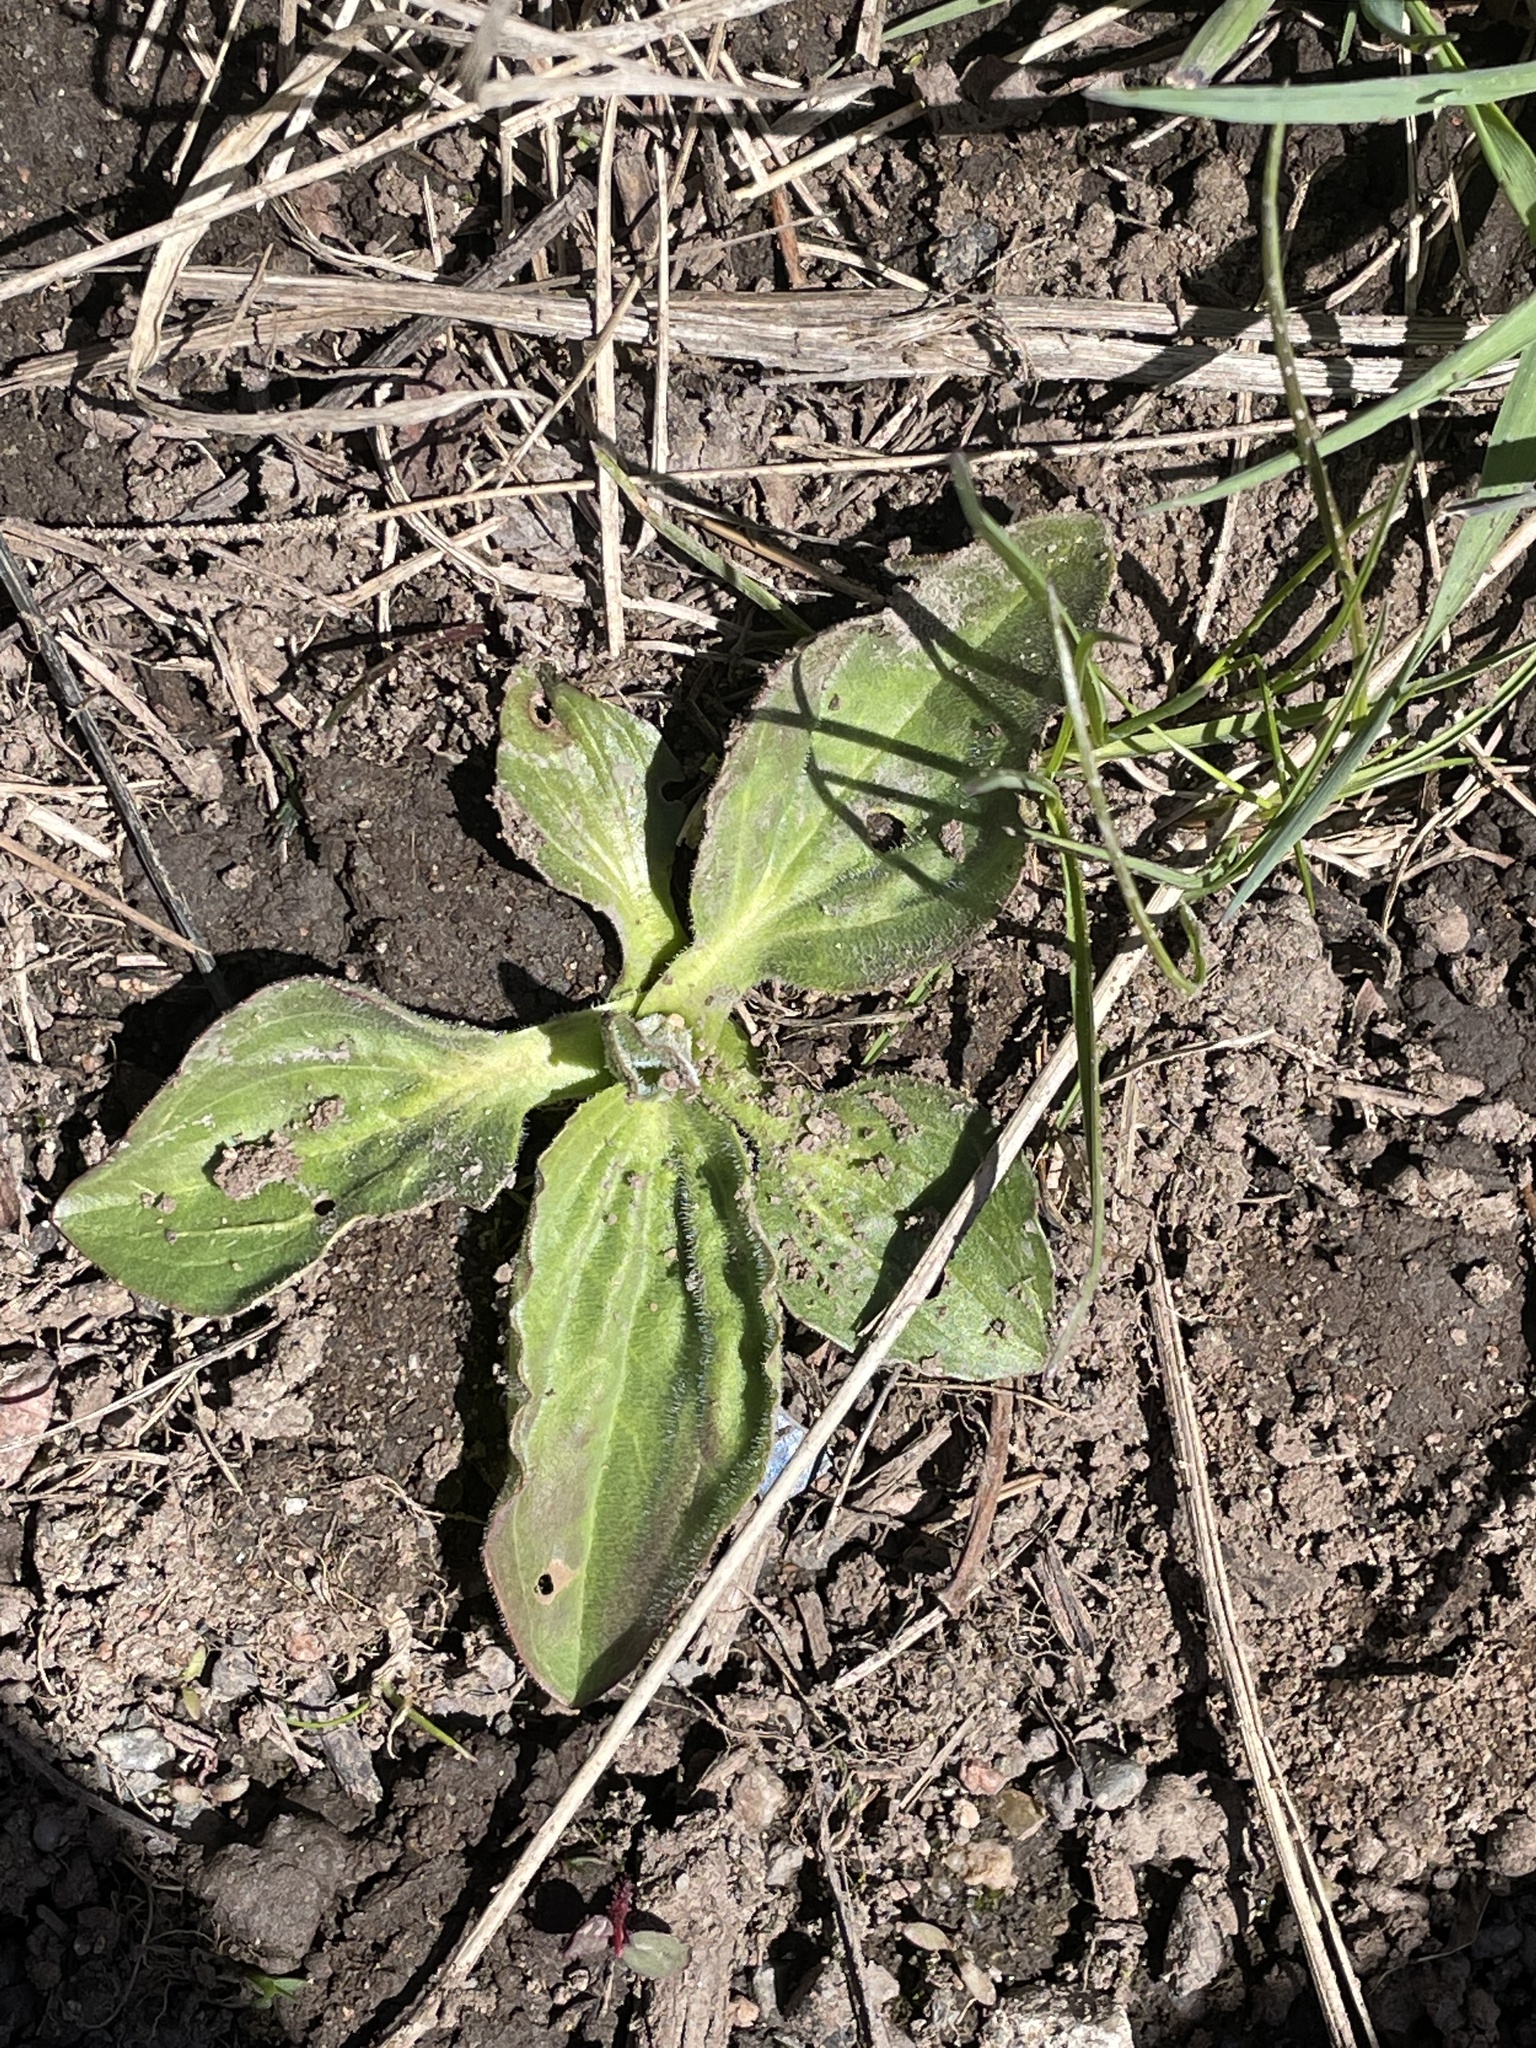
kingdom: Plantae
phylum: Tracheophyta
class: Magnoliopsida
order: Lamiales
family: Plantaginaceae
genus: Plantago
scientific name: Plantago major
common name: Common plantain
